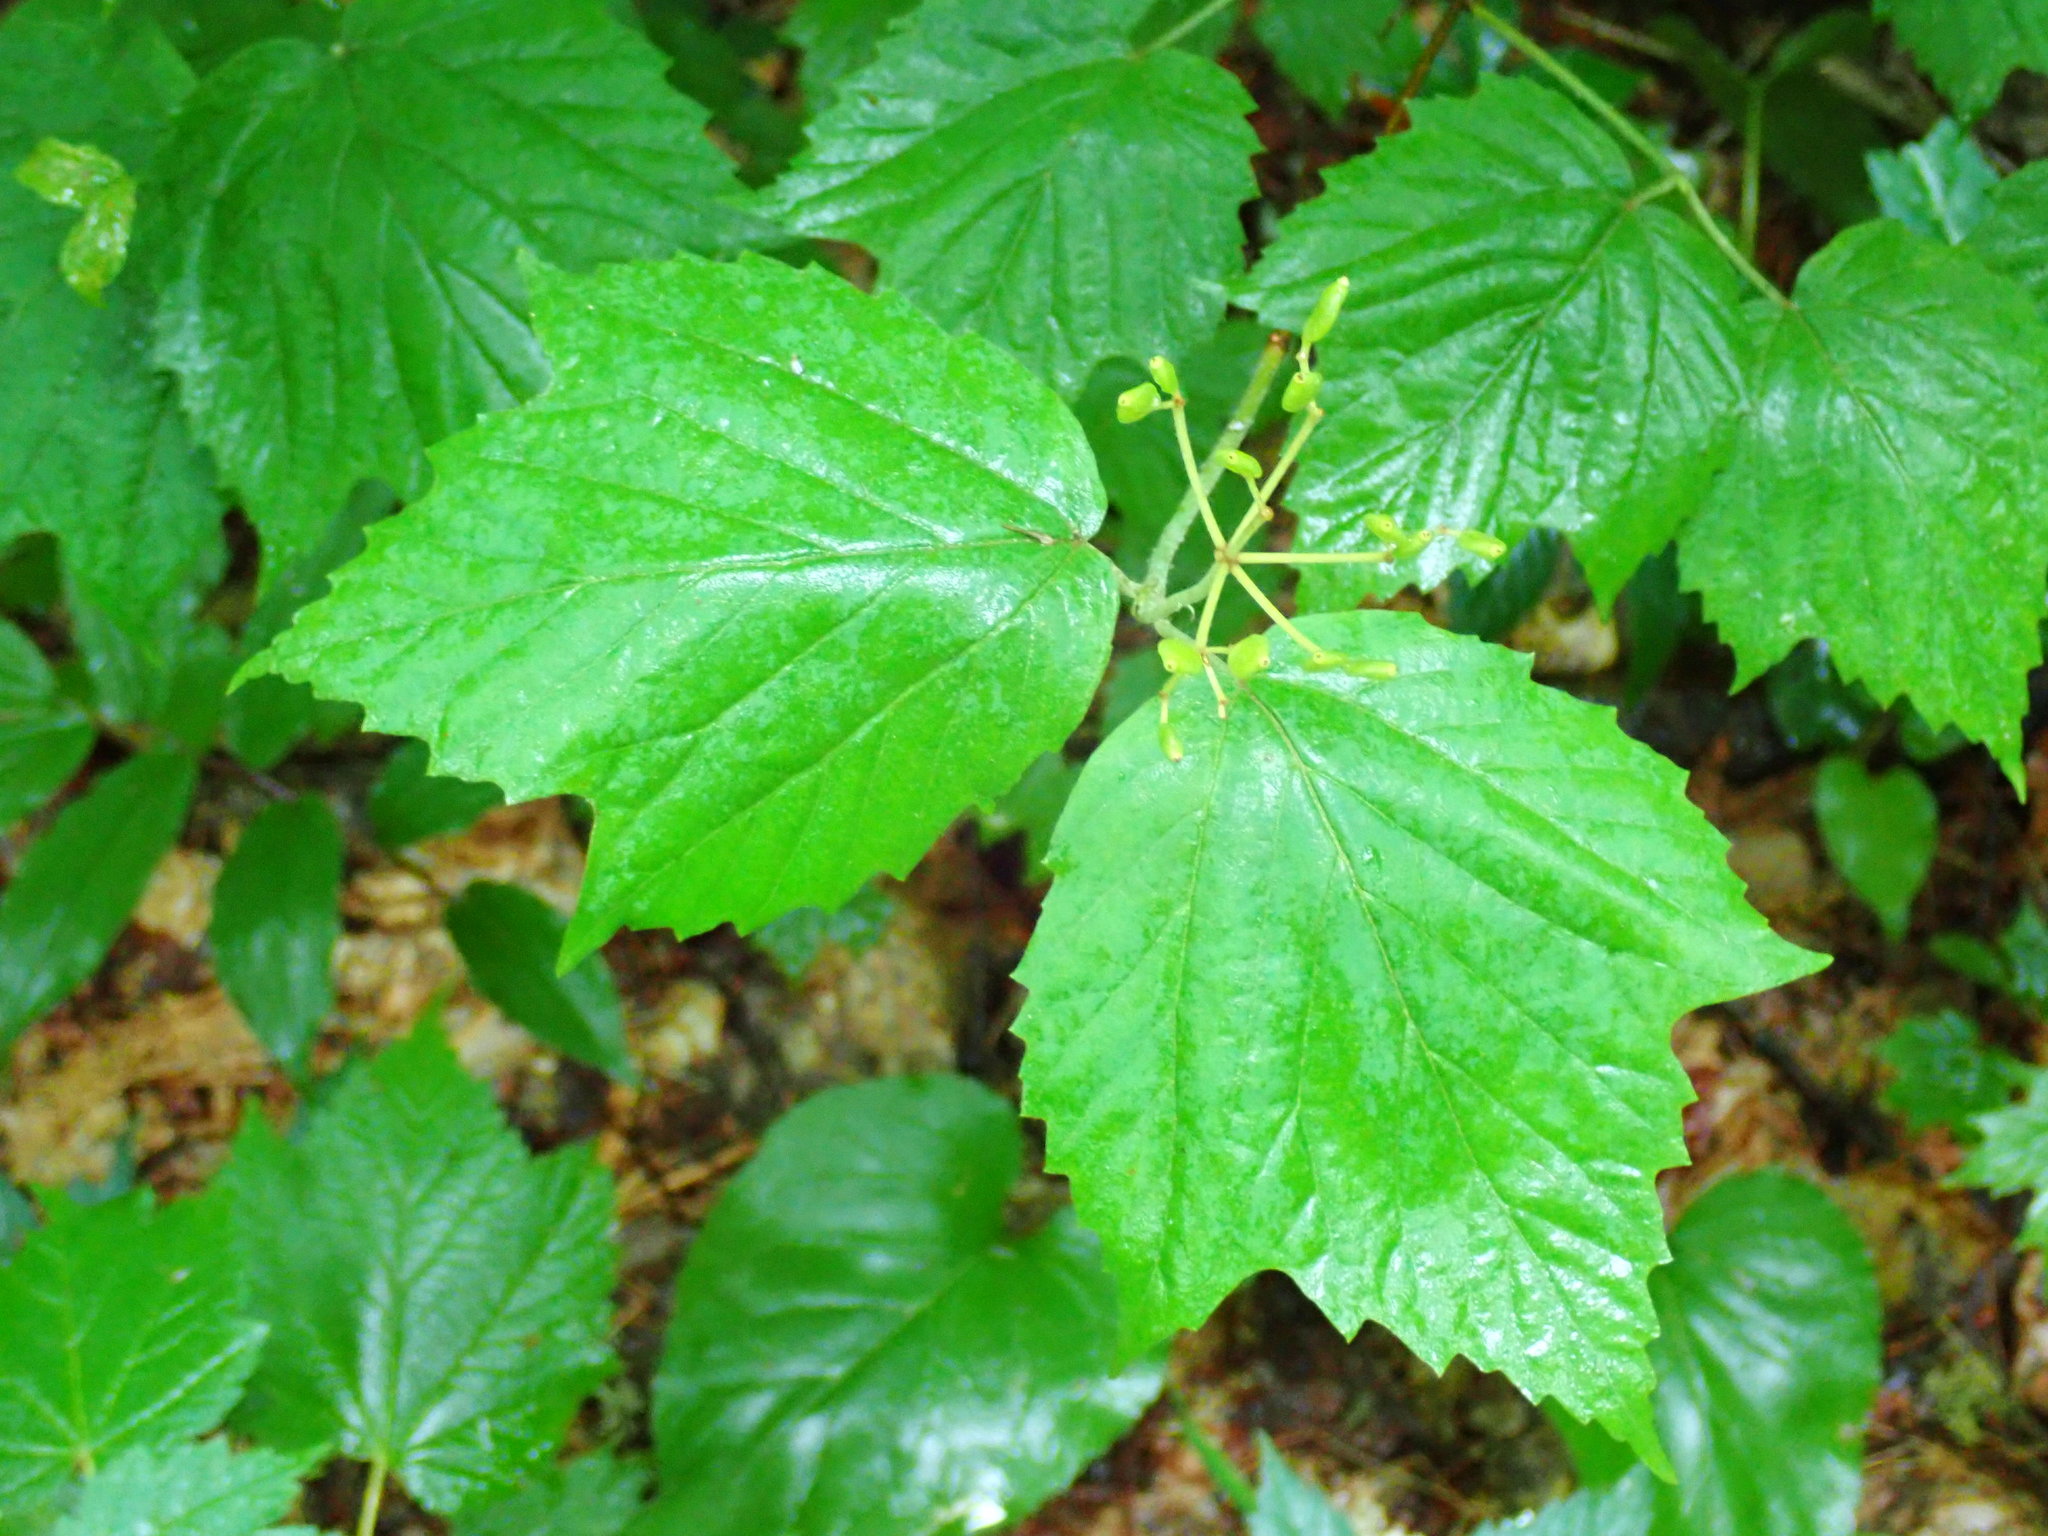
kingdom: Plantae
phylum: Tracheophyta
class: Magnoliopsida
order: Dipsacales
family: Viburnaceae
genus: Viburnum
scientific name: Viburnum acerifolium
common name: Dockmackie
